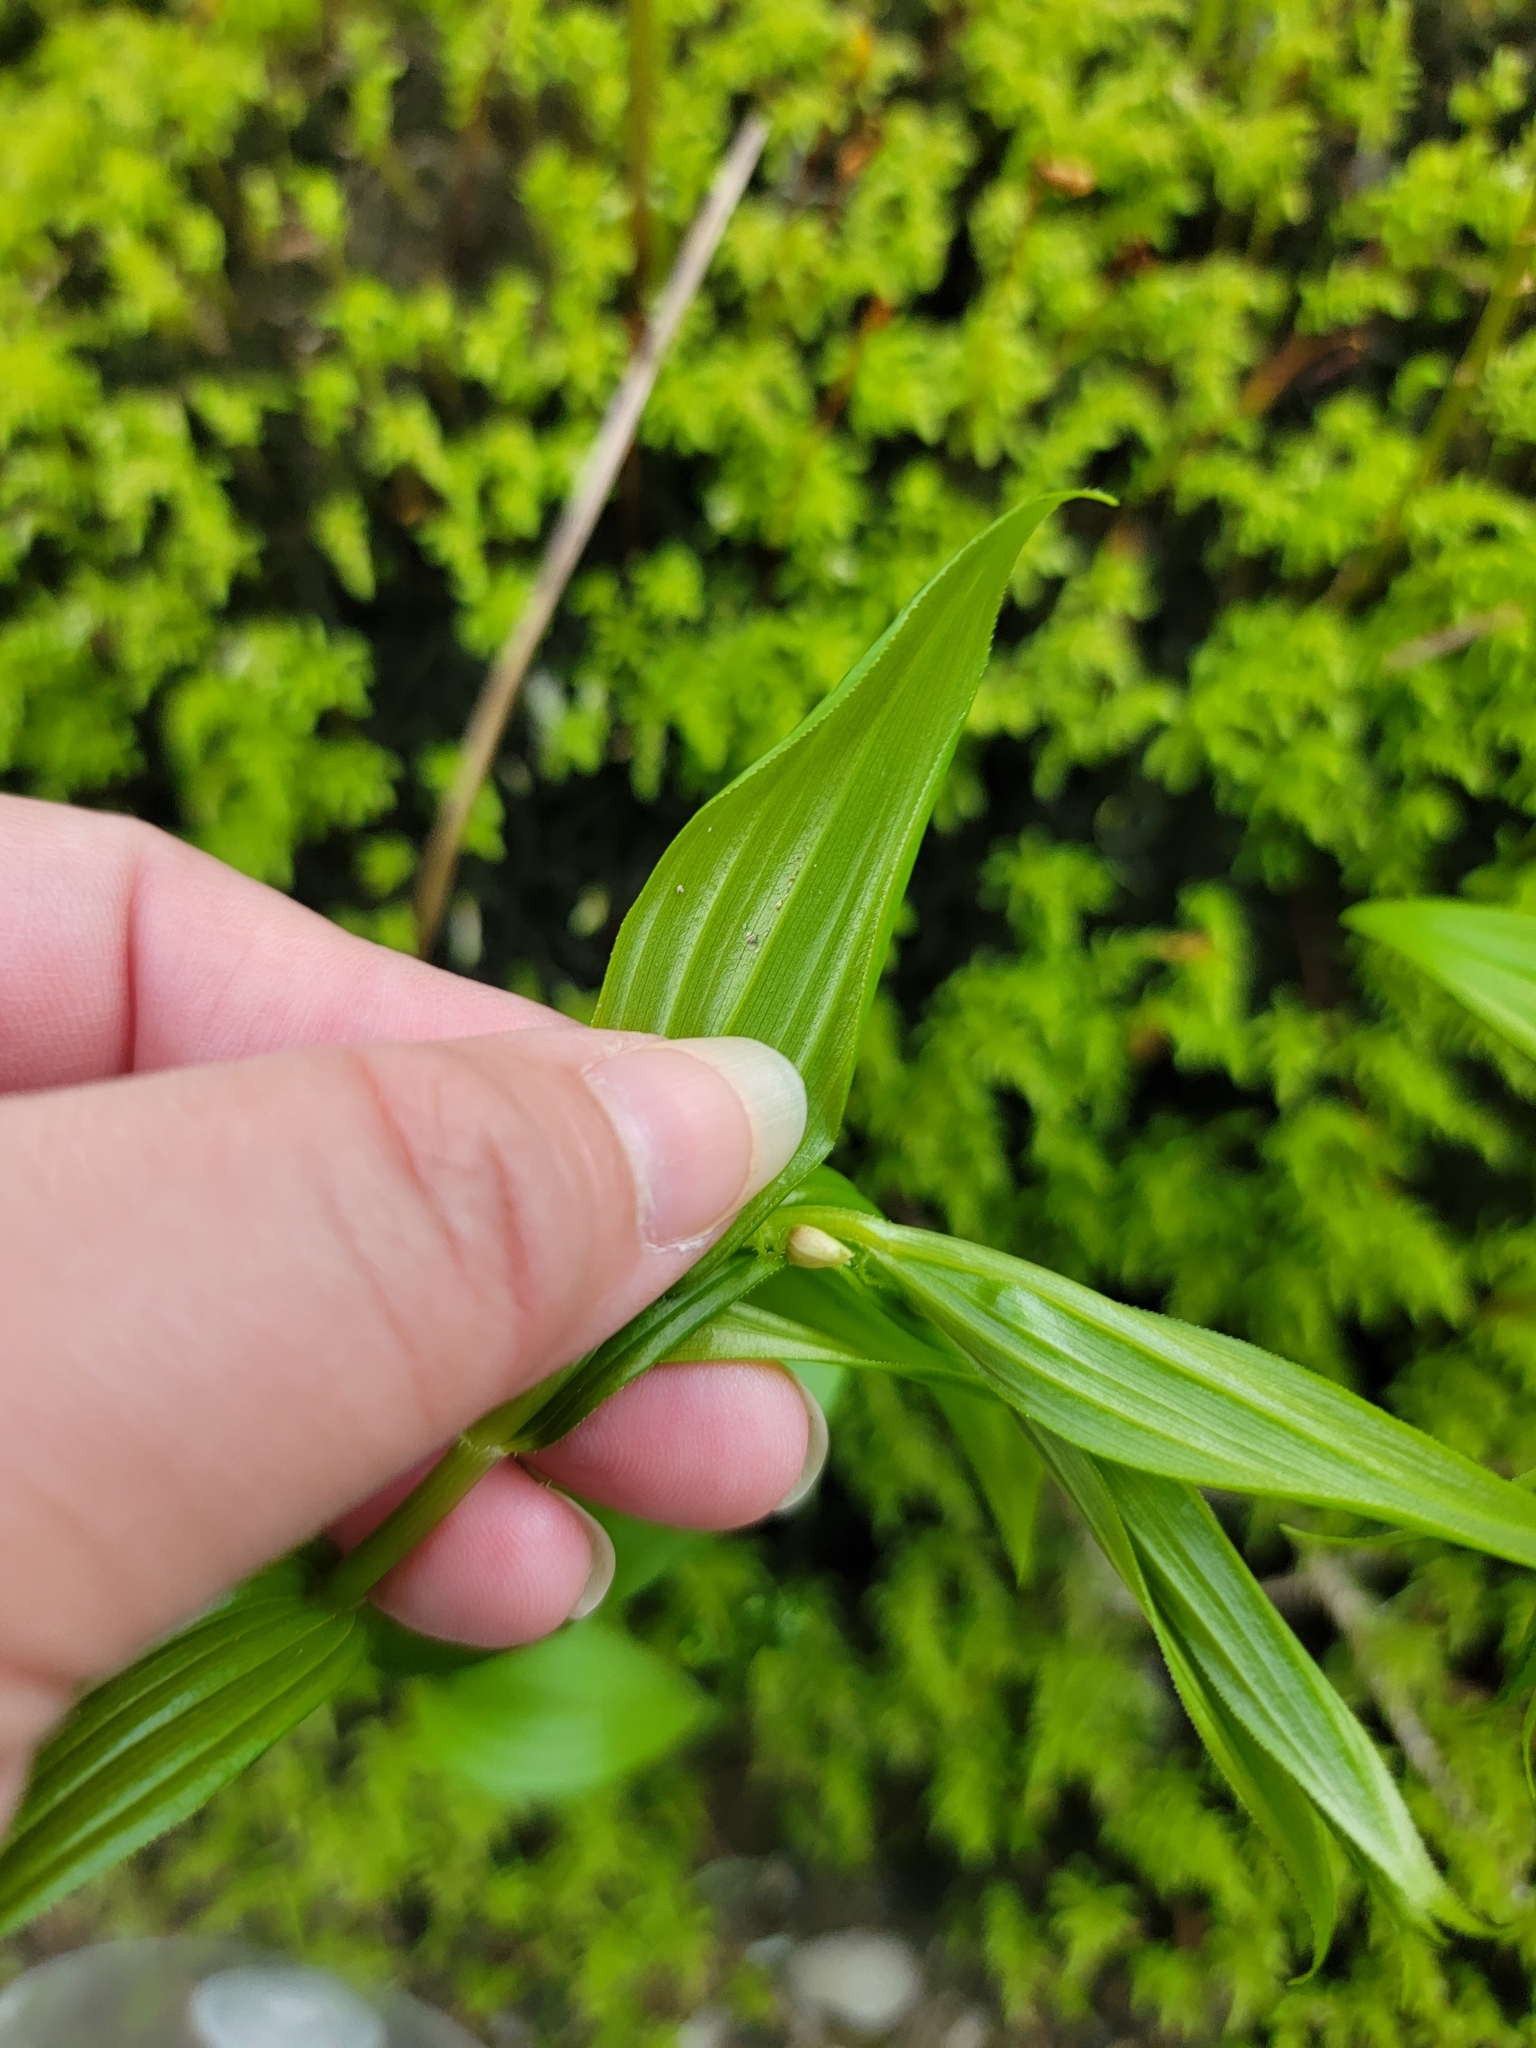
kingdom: Plantae
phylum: Tracheophyta
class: Liliopsida
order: Liliales
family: Liliaceae
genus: Streptopus
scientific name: Streptopus lanceolatus
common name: Rose mandarin
